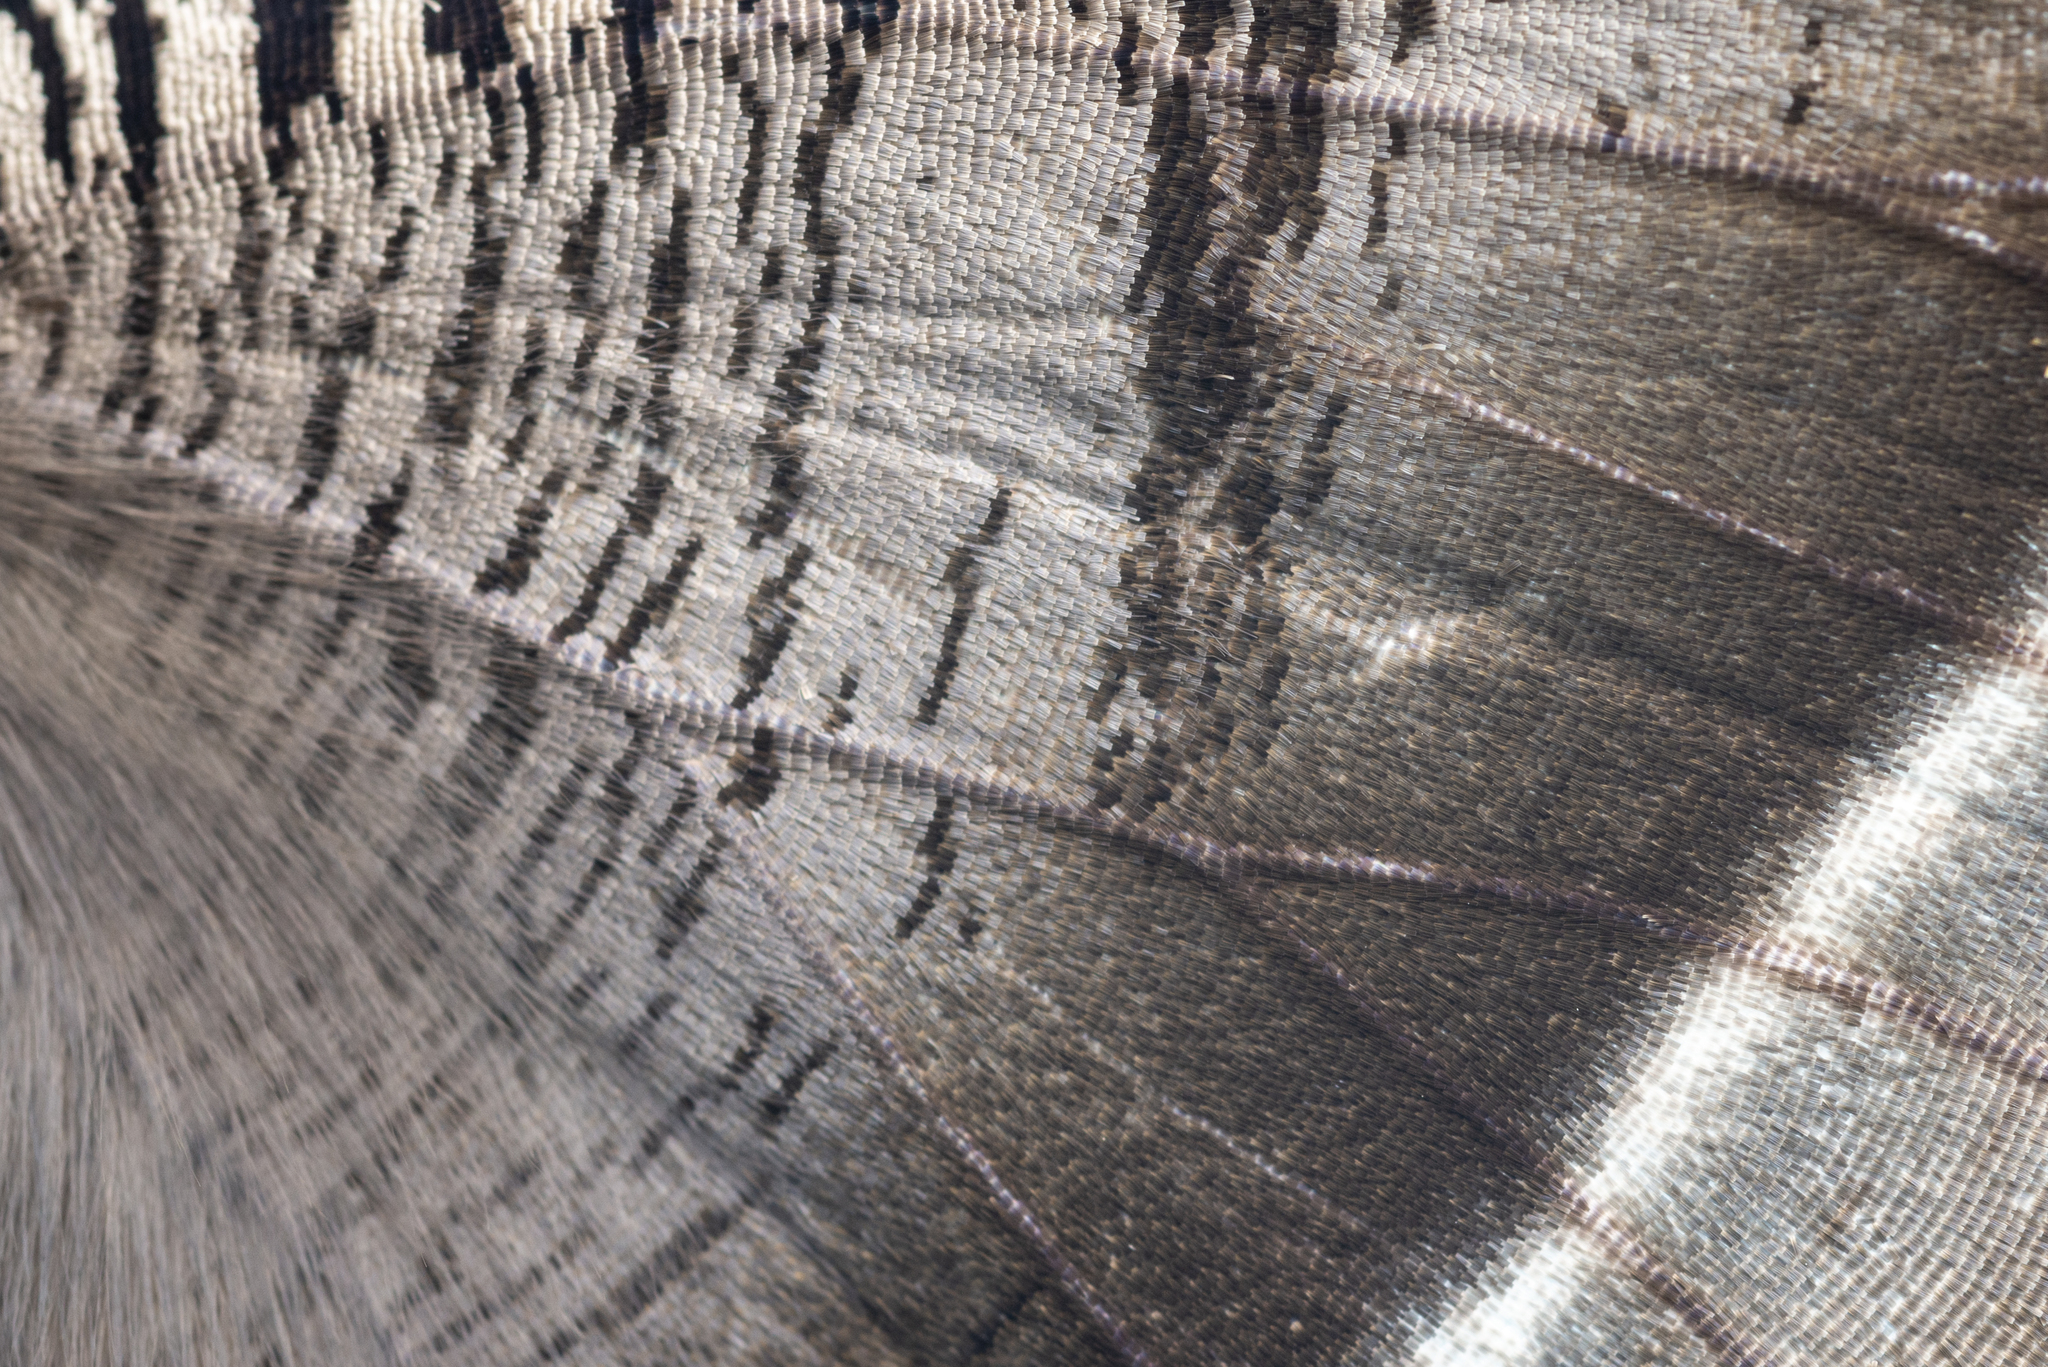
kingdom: Animalia
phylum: Arthropoda
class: Insecta
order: Lepidoptera
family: Uraniidae
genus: Lyssa
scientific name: Lyssa zampa
